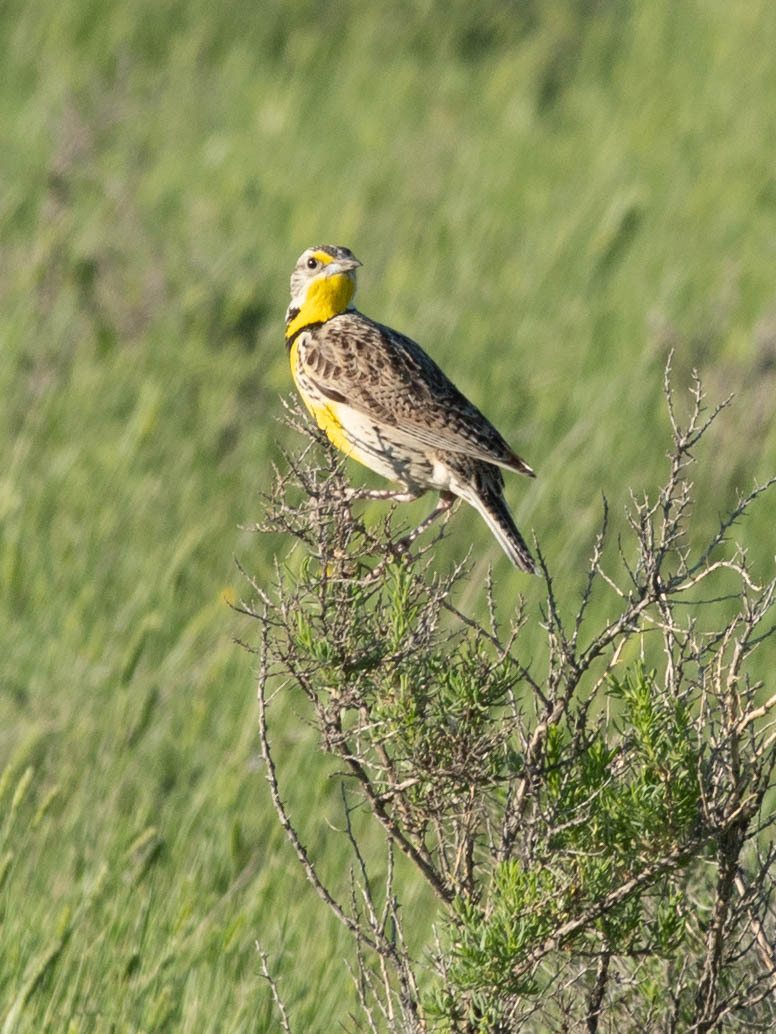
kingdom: Animalia
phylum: Chordata
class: Aves
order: Passeriformes
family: Icteridae
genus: Sturnella
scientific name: Sturnella neglecta
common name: Western meadowlark
